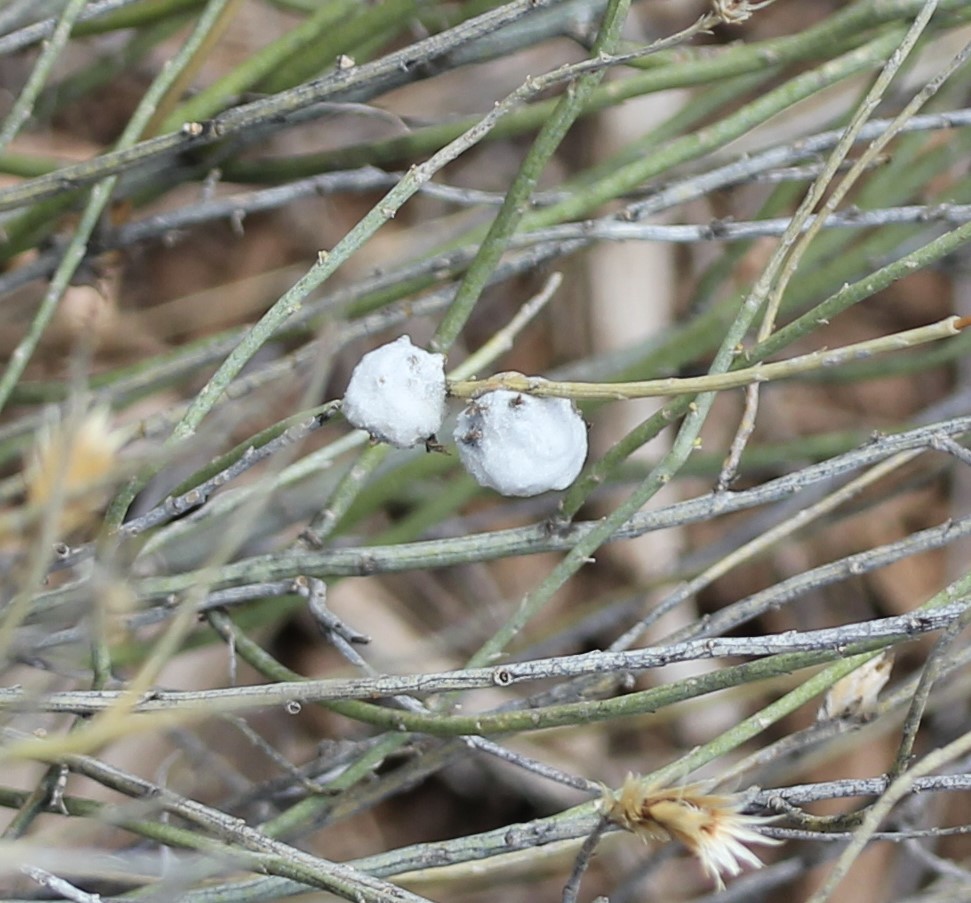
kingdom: Animalia
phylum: Arthropoda
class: Insecta
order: Diptera
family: Tephritidae
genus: Aciurina
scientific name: Aciurina bigeloviae
